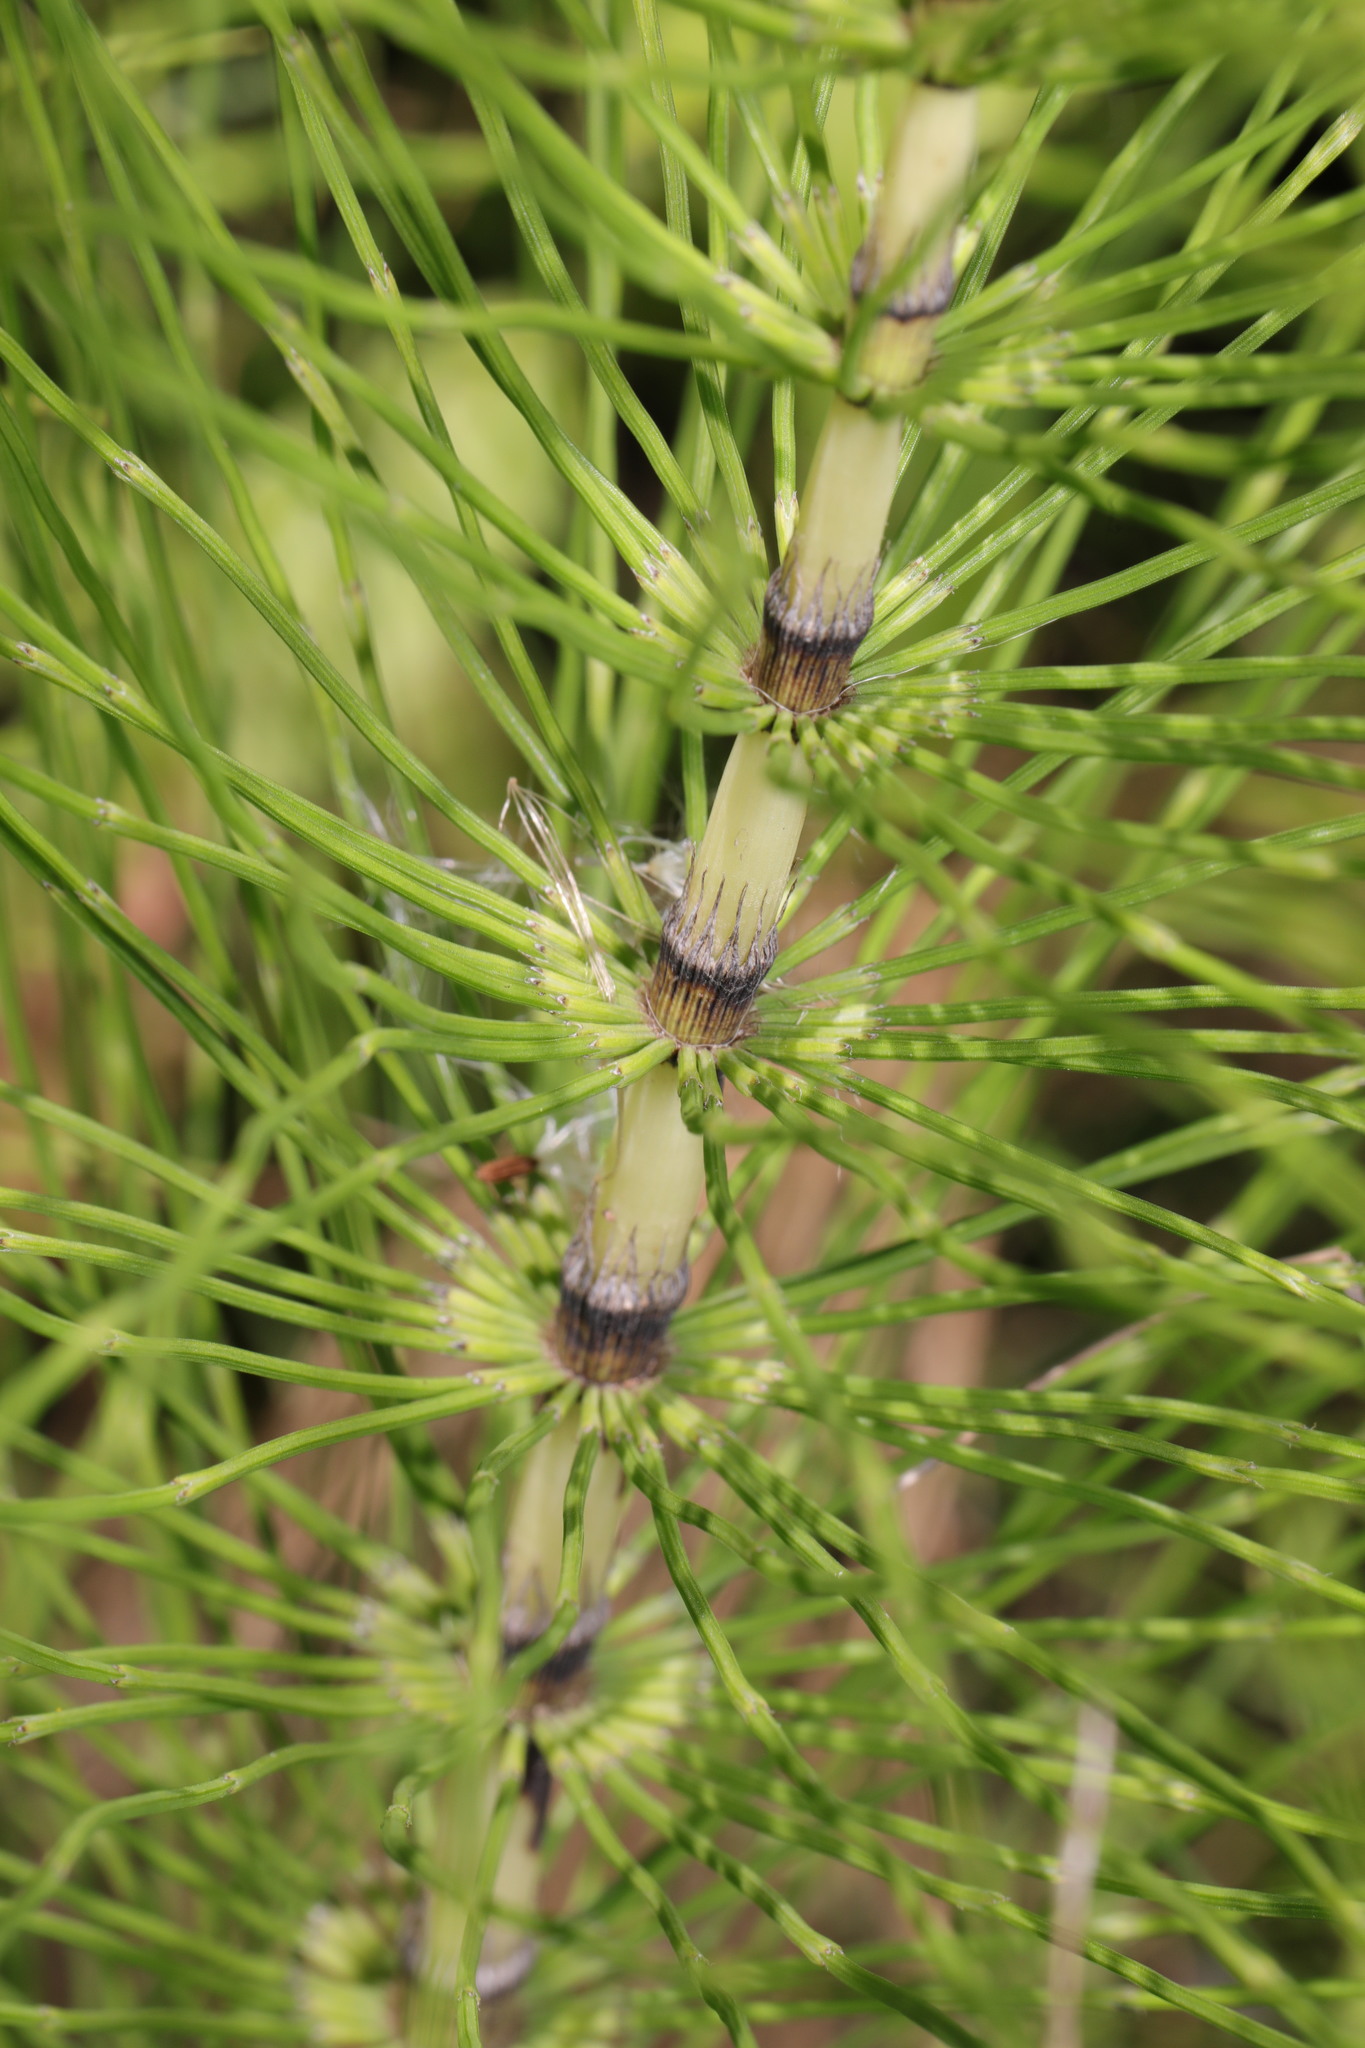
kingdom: Plantae
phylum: Tracheophyta
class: Polypodiopsida
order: Equisetales
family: Equisetaceae
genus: Equisetum
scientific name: Equisetum telmateia
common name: Great horsetail
